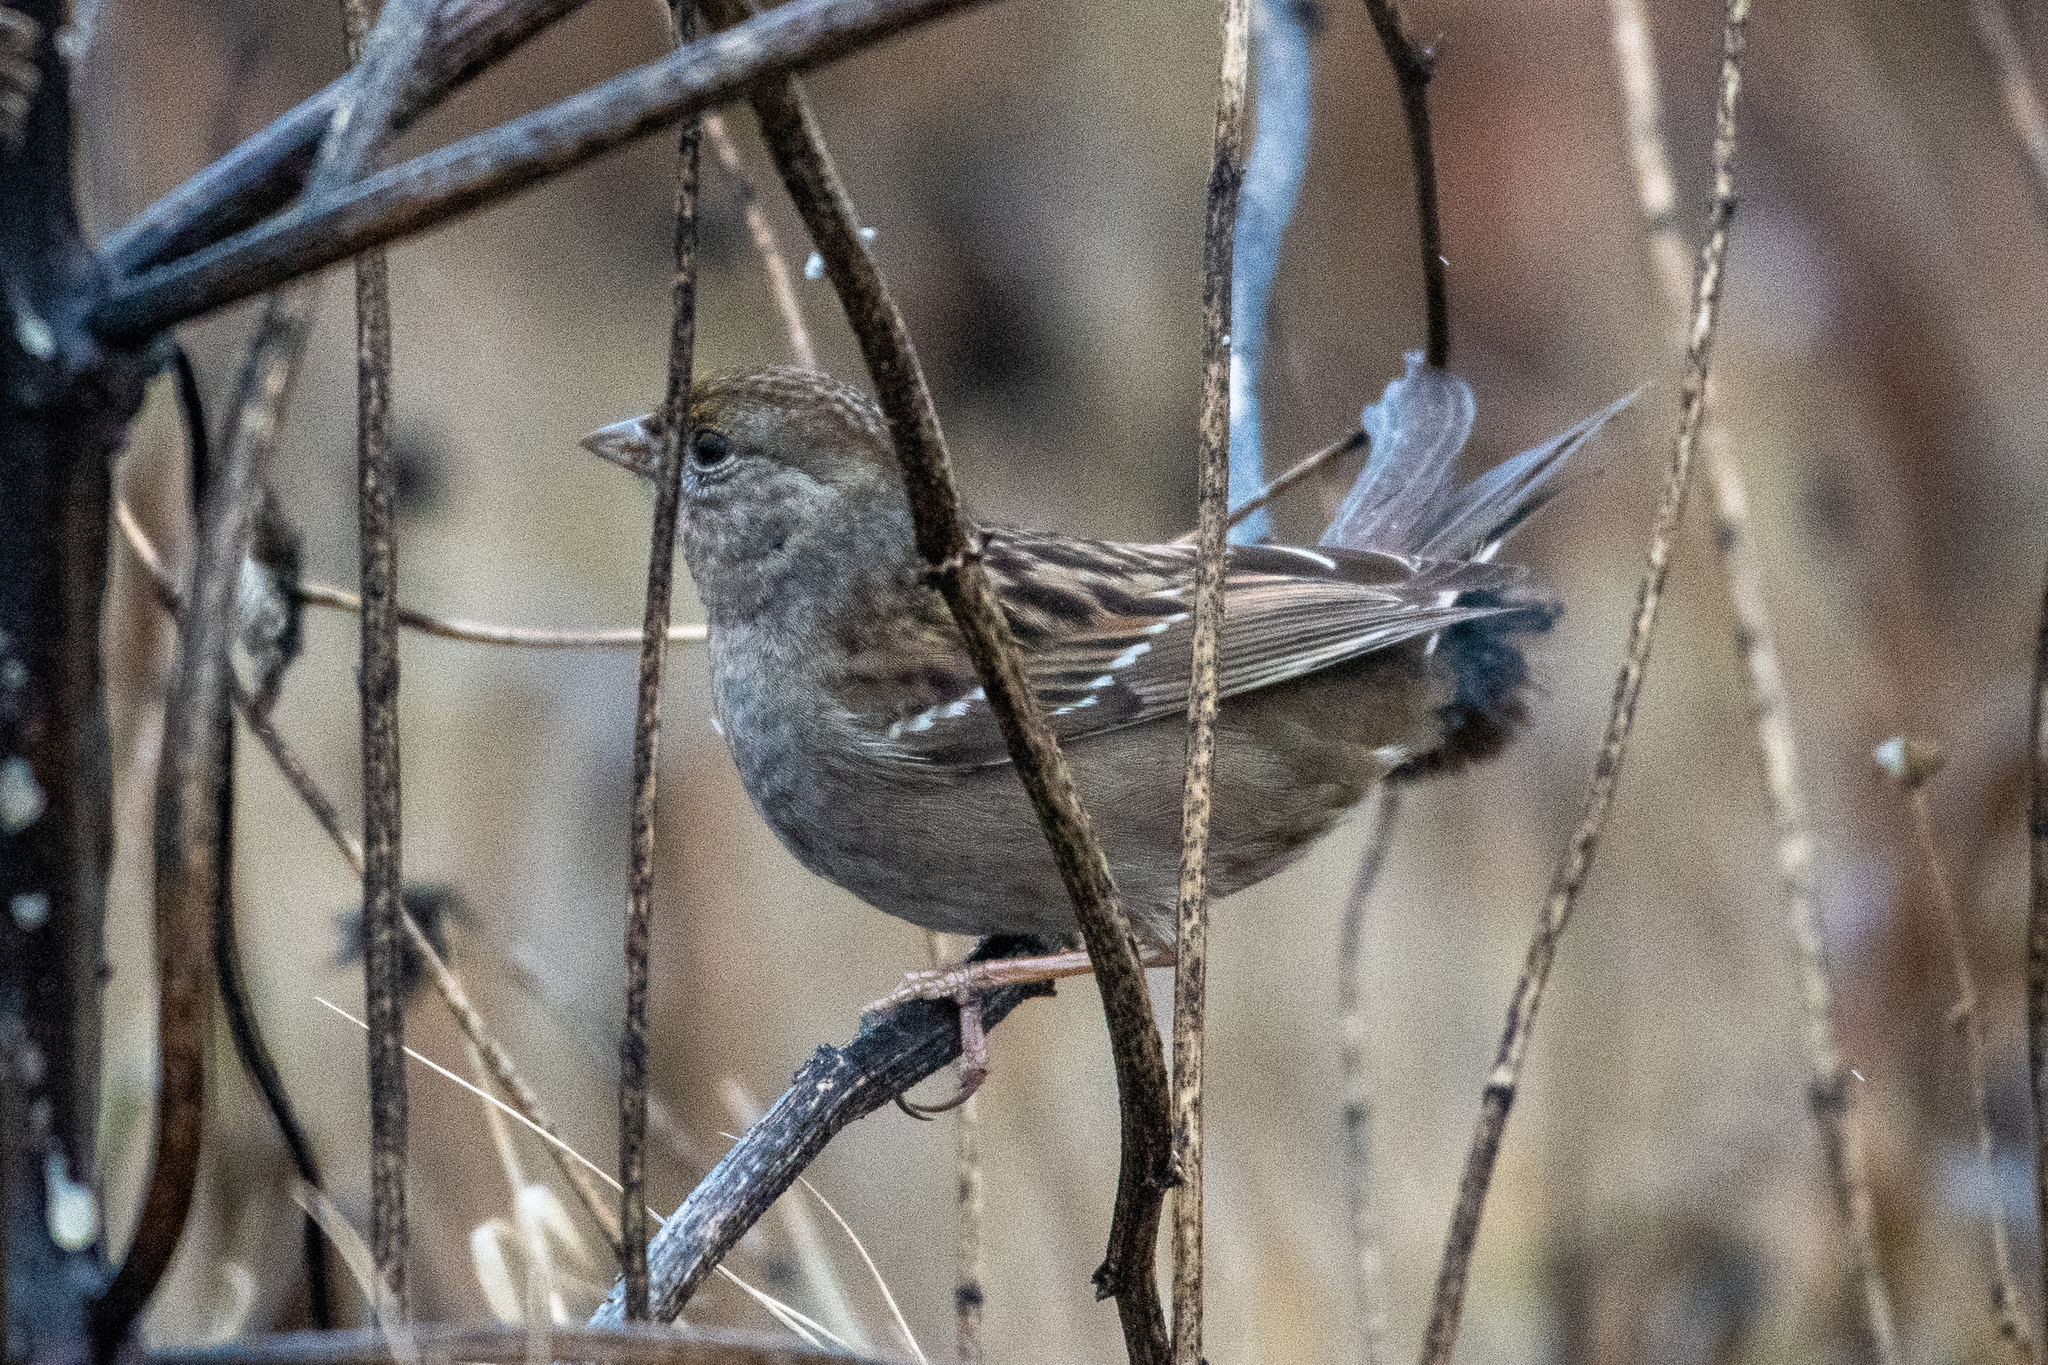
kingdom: Animalia
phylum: Chordata
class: Aves
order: Passeriformes
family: Passerellidae
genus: Zonotrichia
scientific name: Zonotrichia atricapilla
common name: Golden-crowned sparrow
